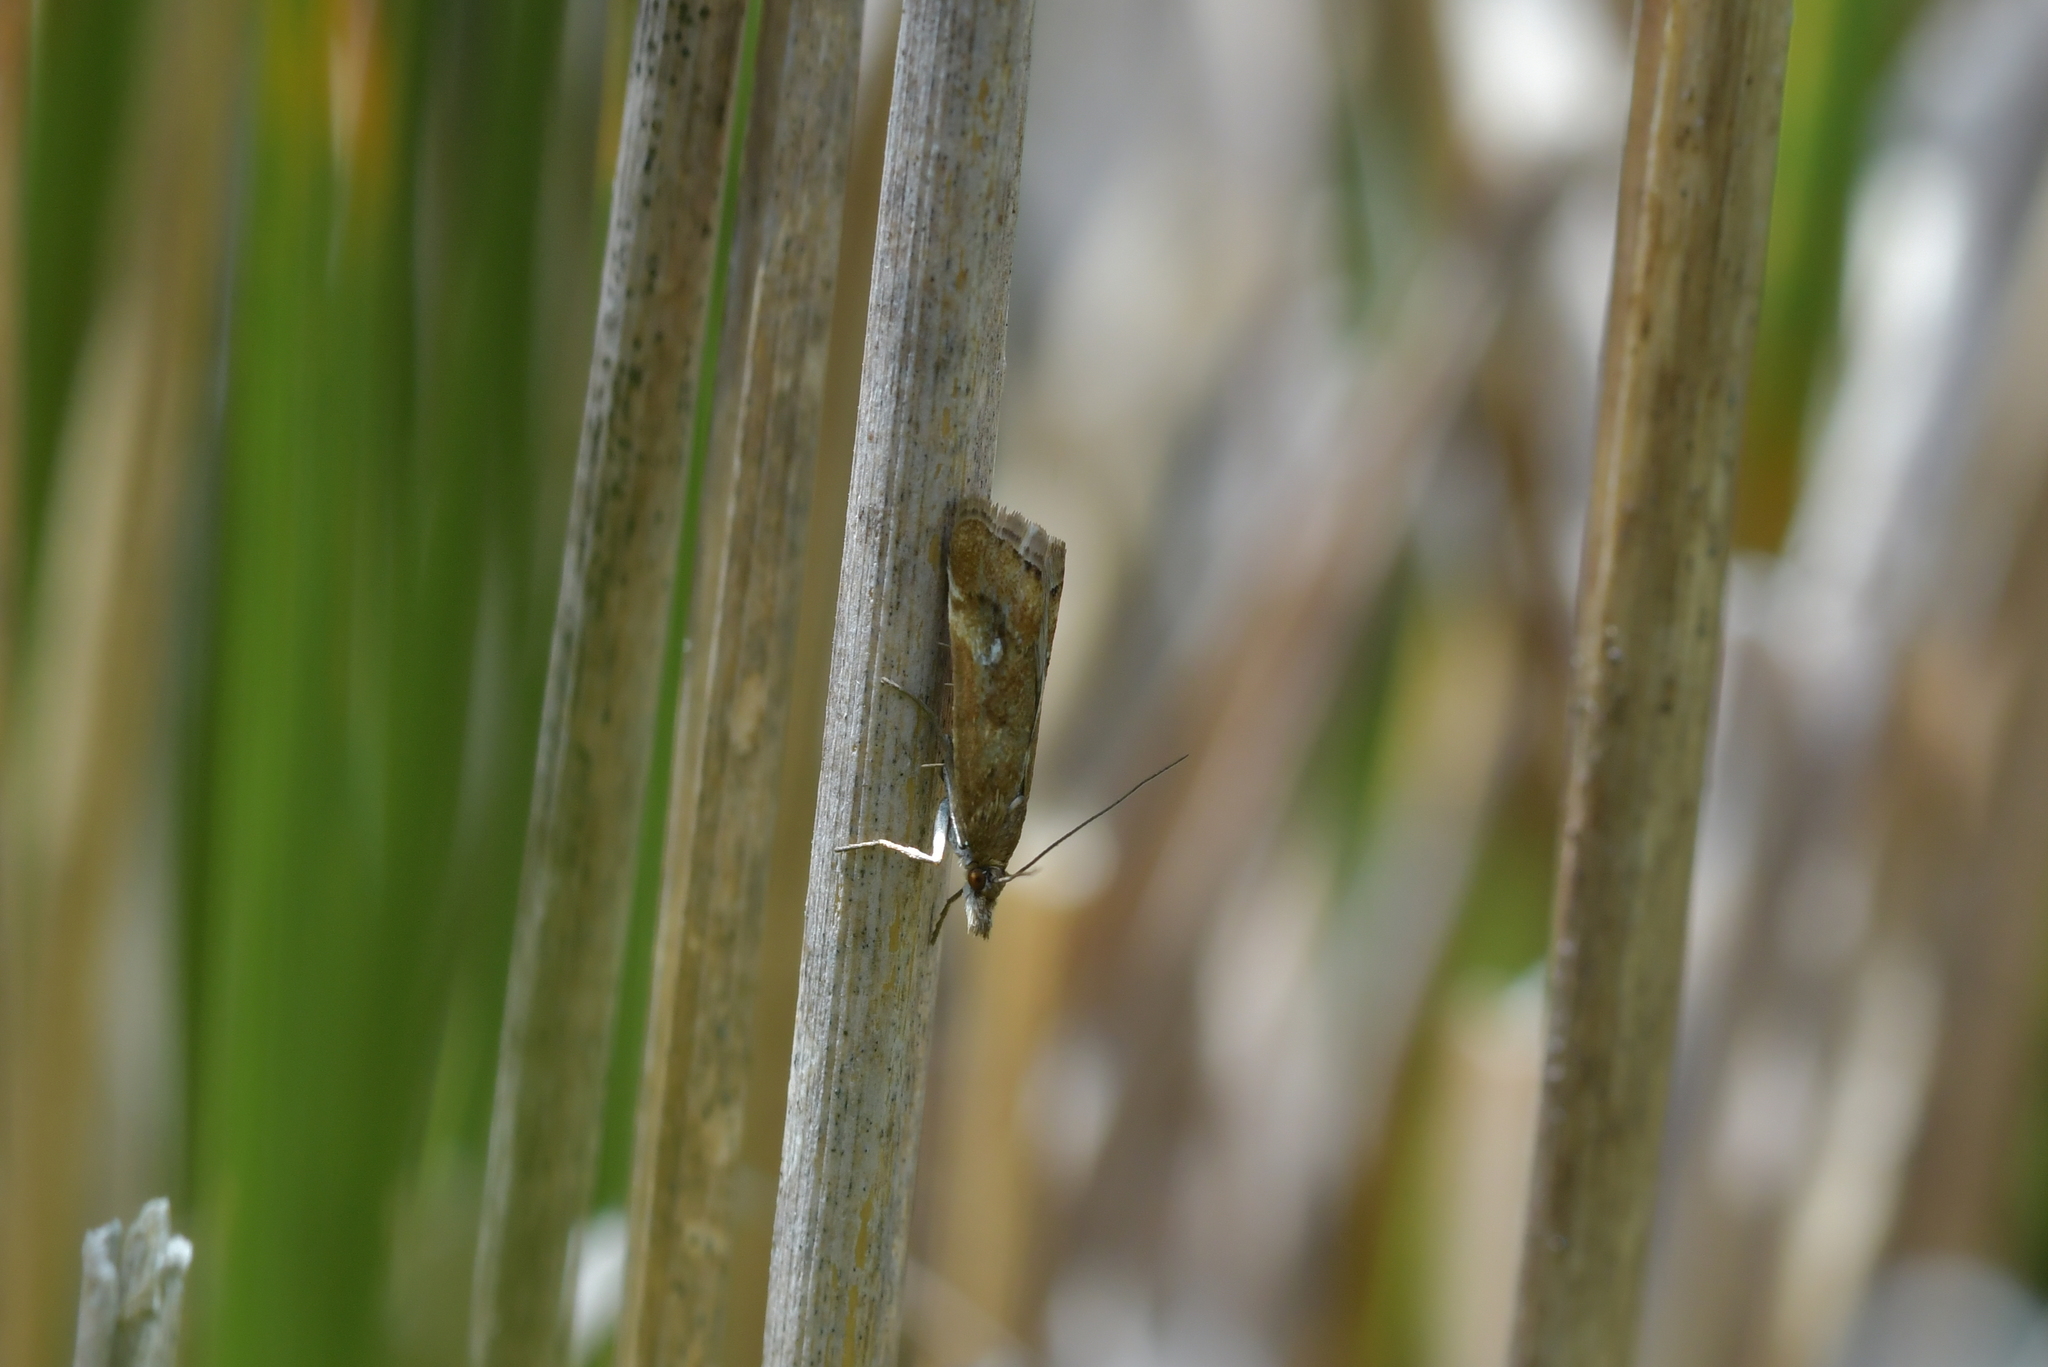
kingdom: Animalia
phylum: Arthropoda
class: Insecta
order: Lepidoptera
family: Crambidae
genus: Glaucocharis
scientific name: Glaucocharis helioctypa
